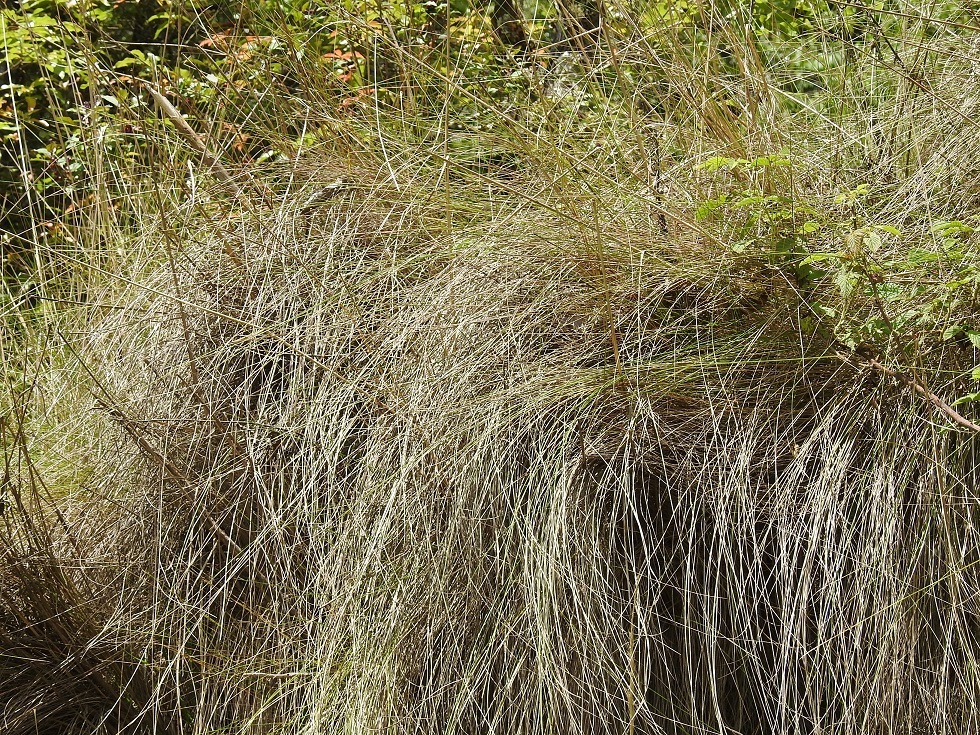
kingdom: Plantae
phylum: Tracheophyta
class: Liliopsida
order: Poales
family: Poaceae
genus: Jarava
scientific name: Jarava ichu
